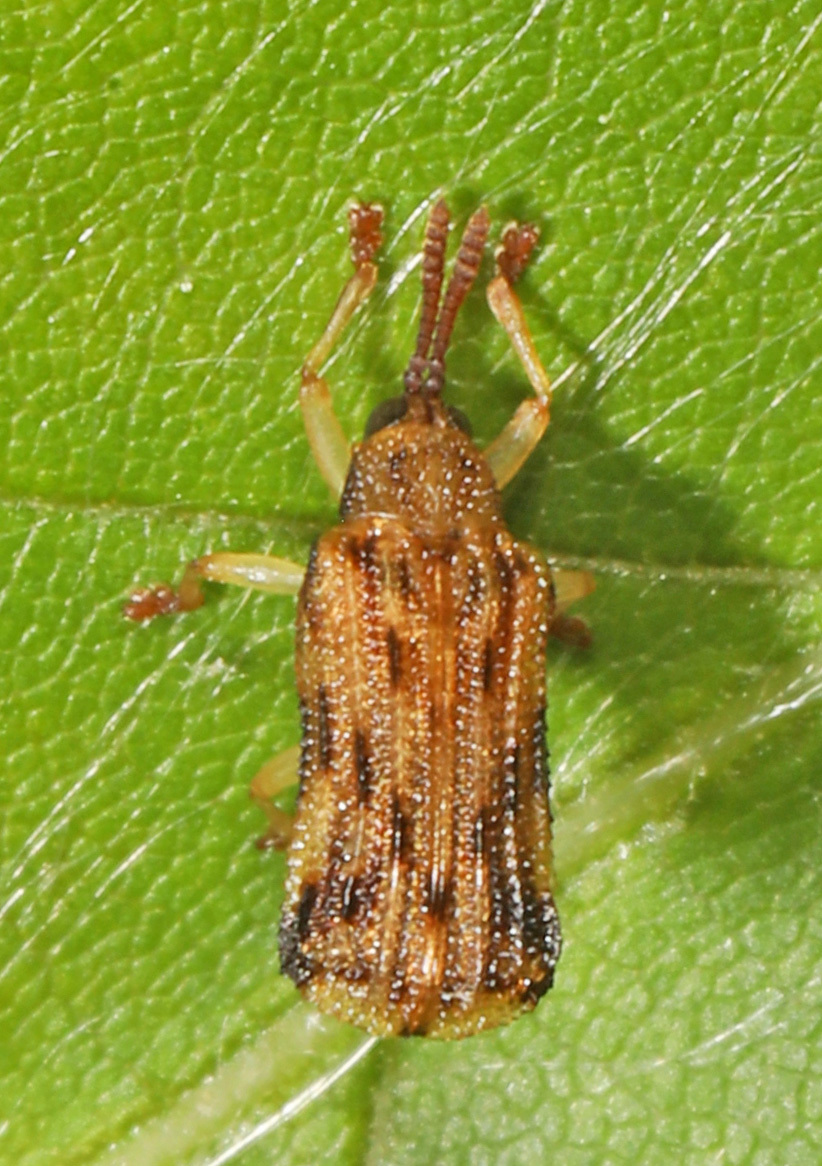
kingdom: Animalia
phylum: Arthropoda
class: Insecta
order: Coleoptera
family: Chrysomelidae
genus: Sumitrosis
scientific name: Sumitrosis rosea
